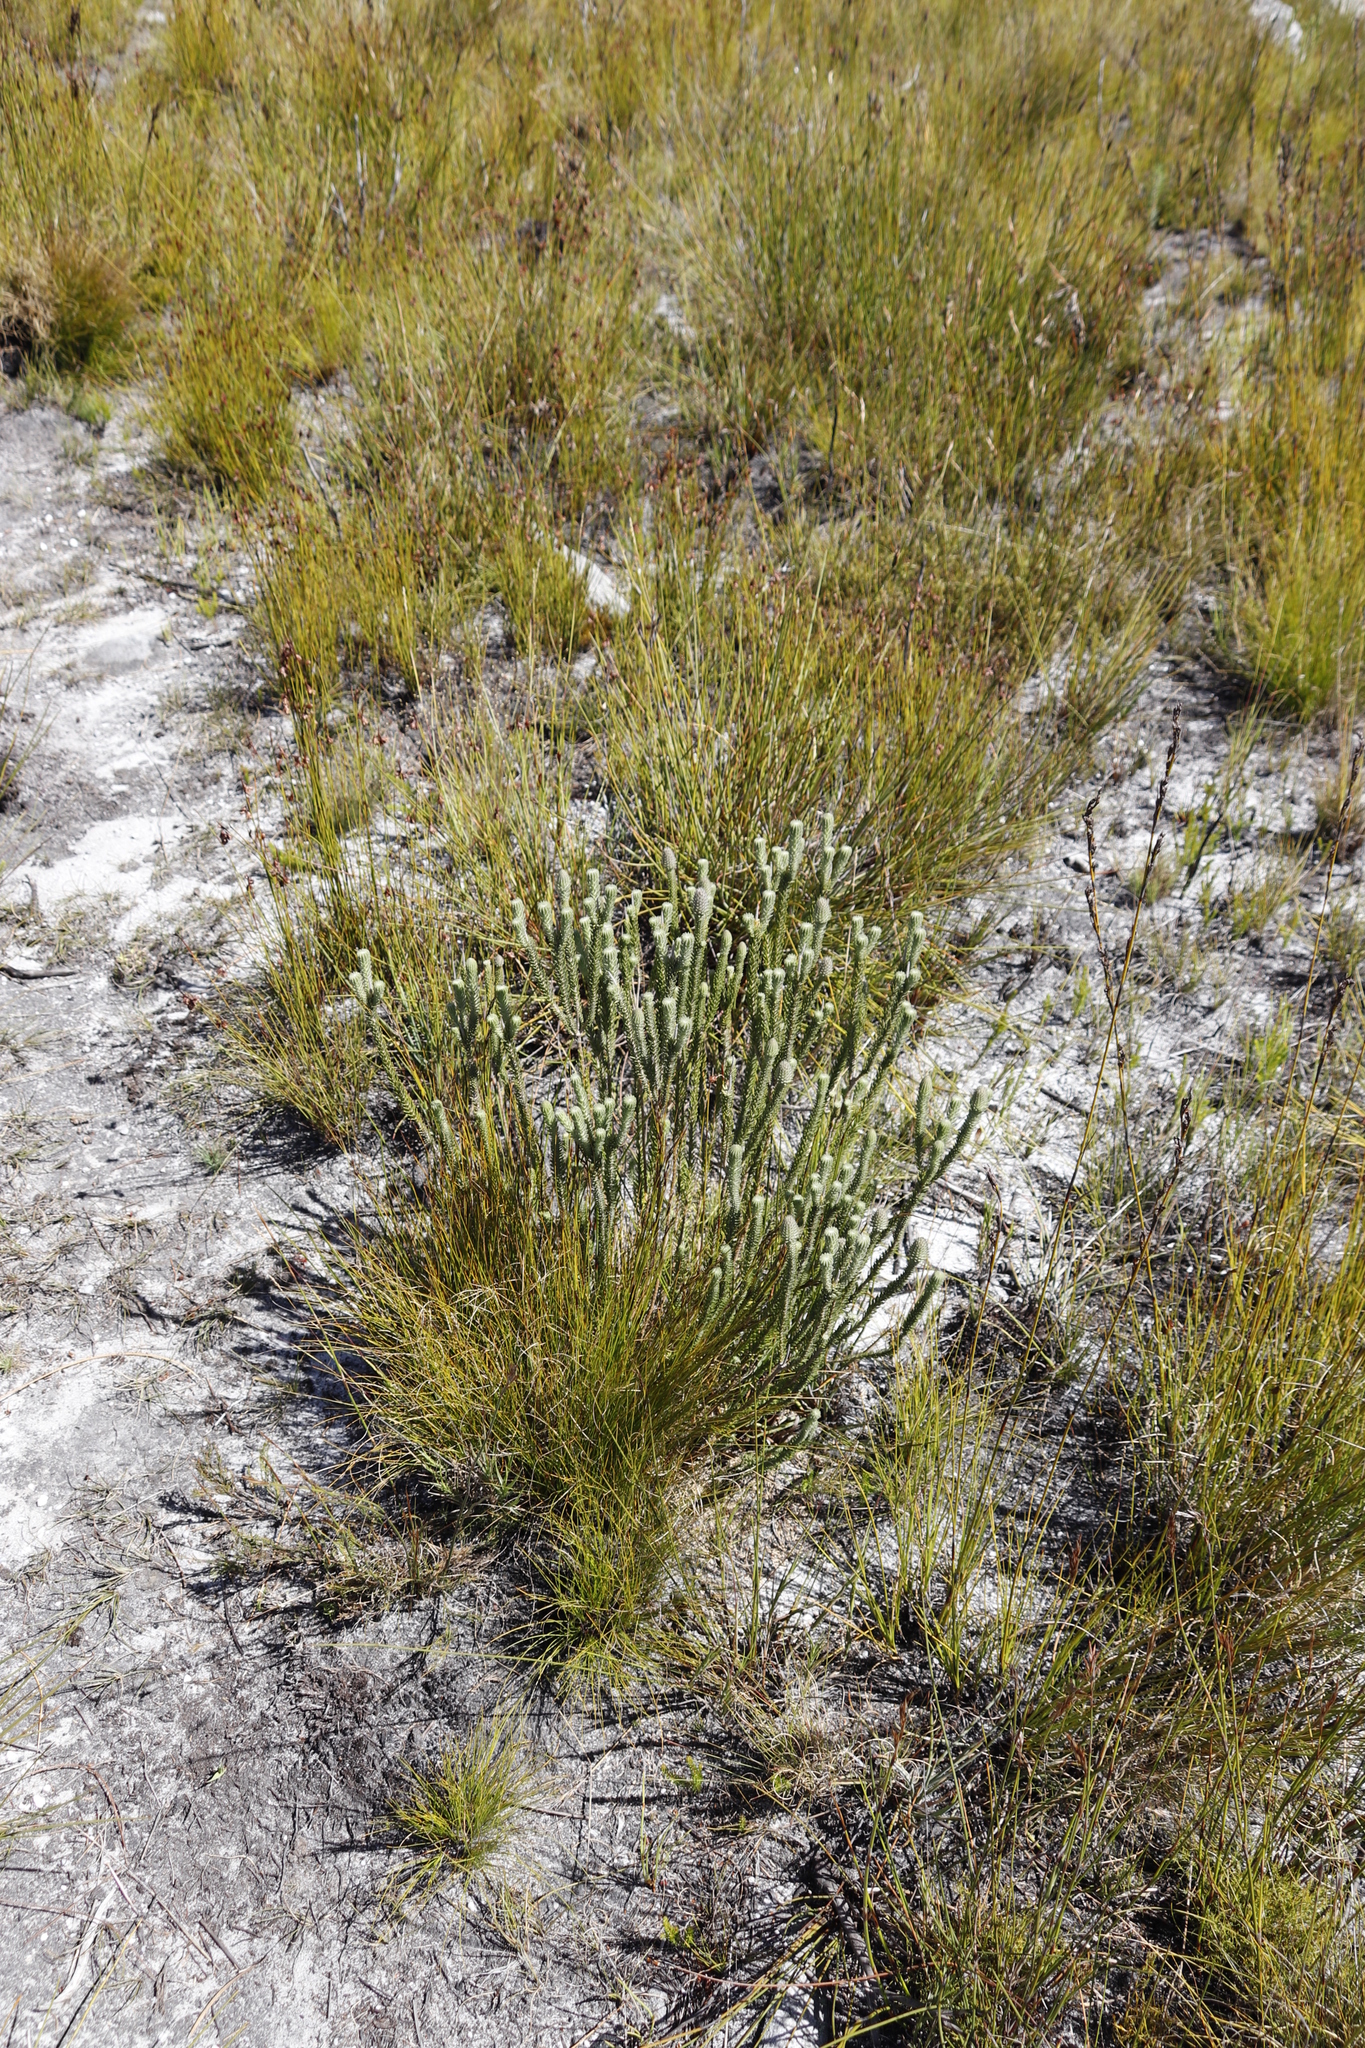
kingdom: Plantae
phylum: Tracheophyta
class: Magnoliopsida
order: Lamiales
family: Stilbaceae
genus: Stilbe
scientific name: Stilbe albiflora
